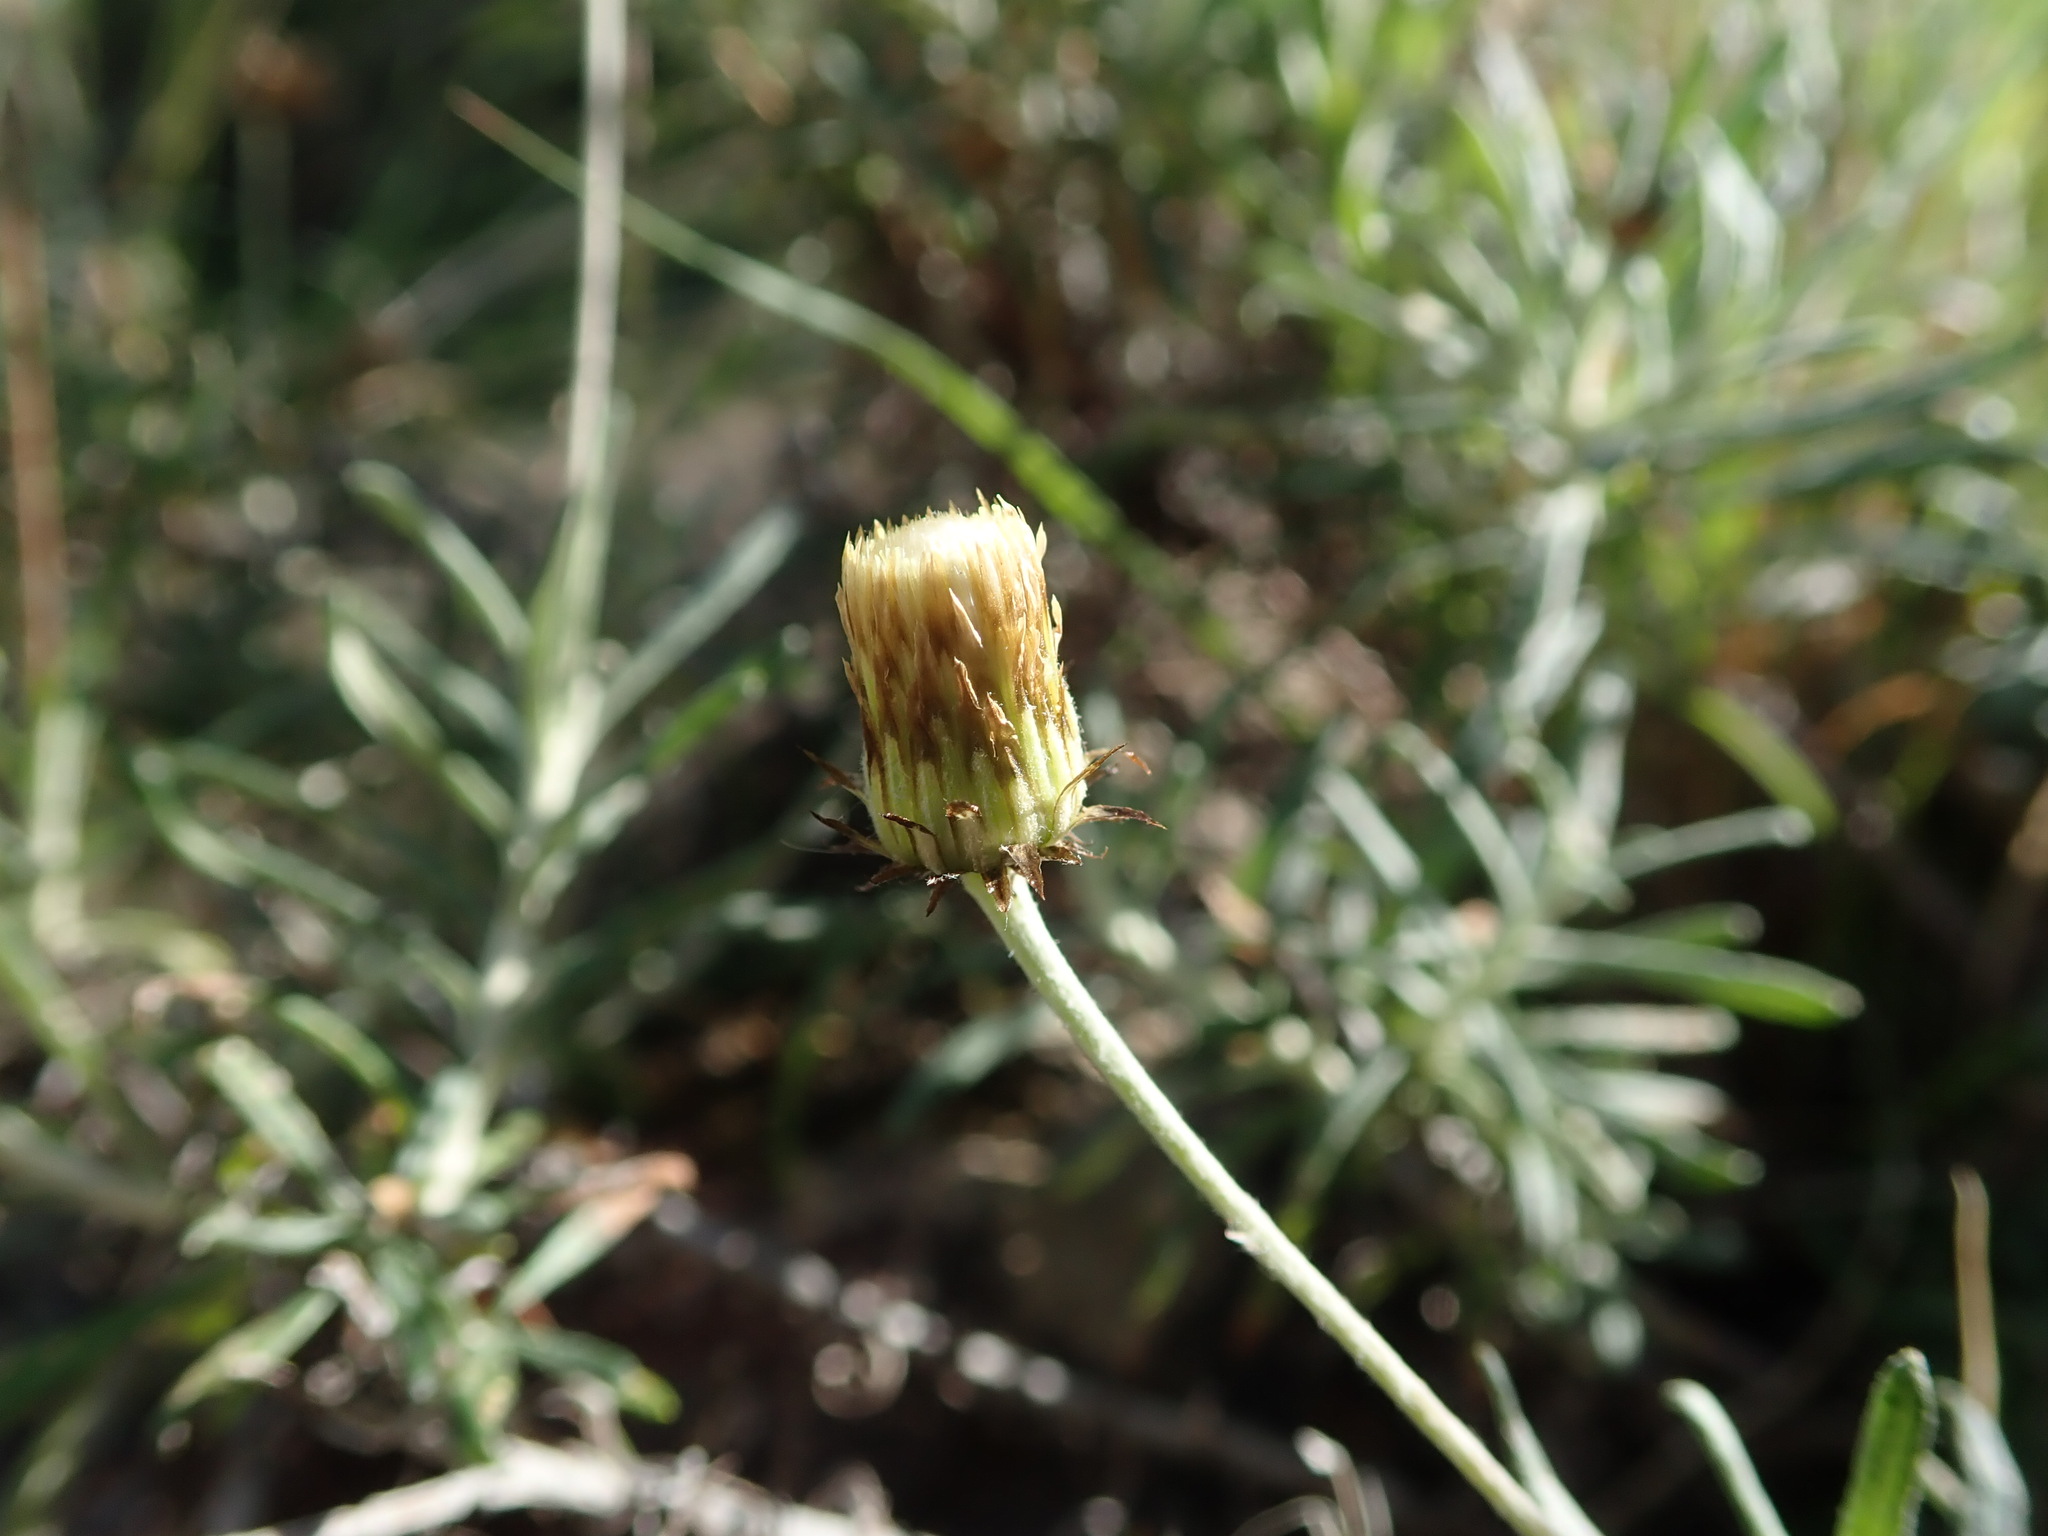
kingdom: Plantae
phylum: Tracheophyta
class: Magnoliopsida
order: Asterales
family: Asteraceae
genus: Phagnalon
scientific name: Phagnalon saxatile
